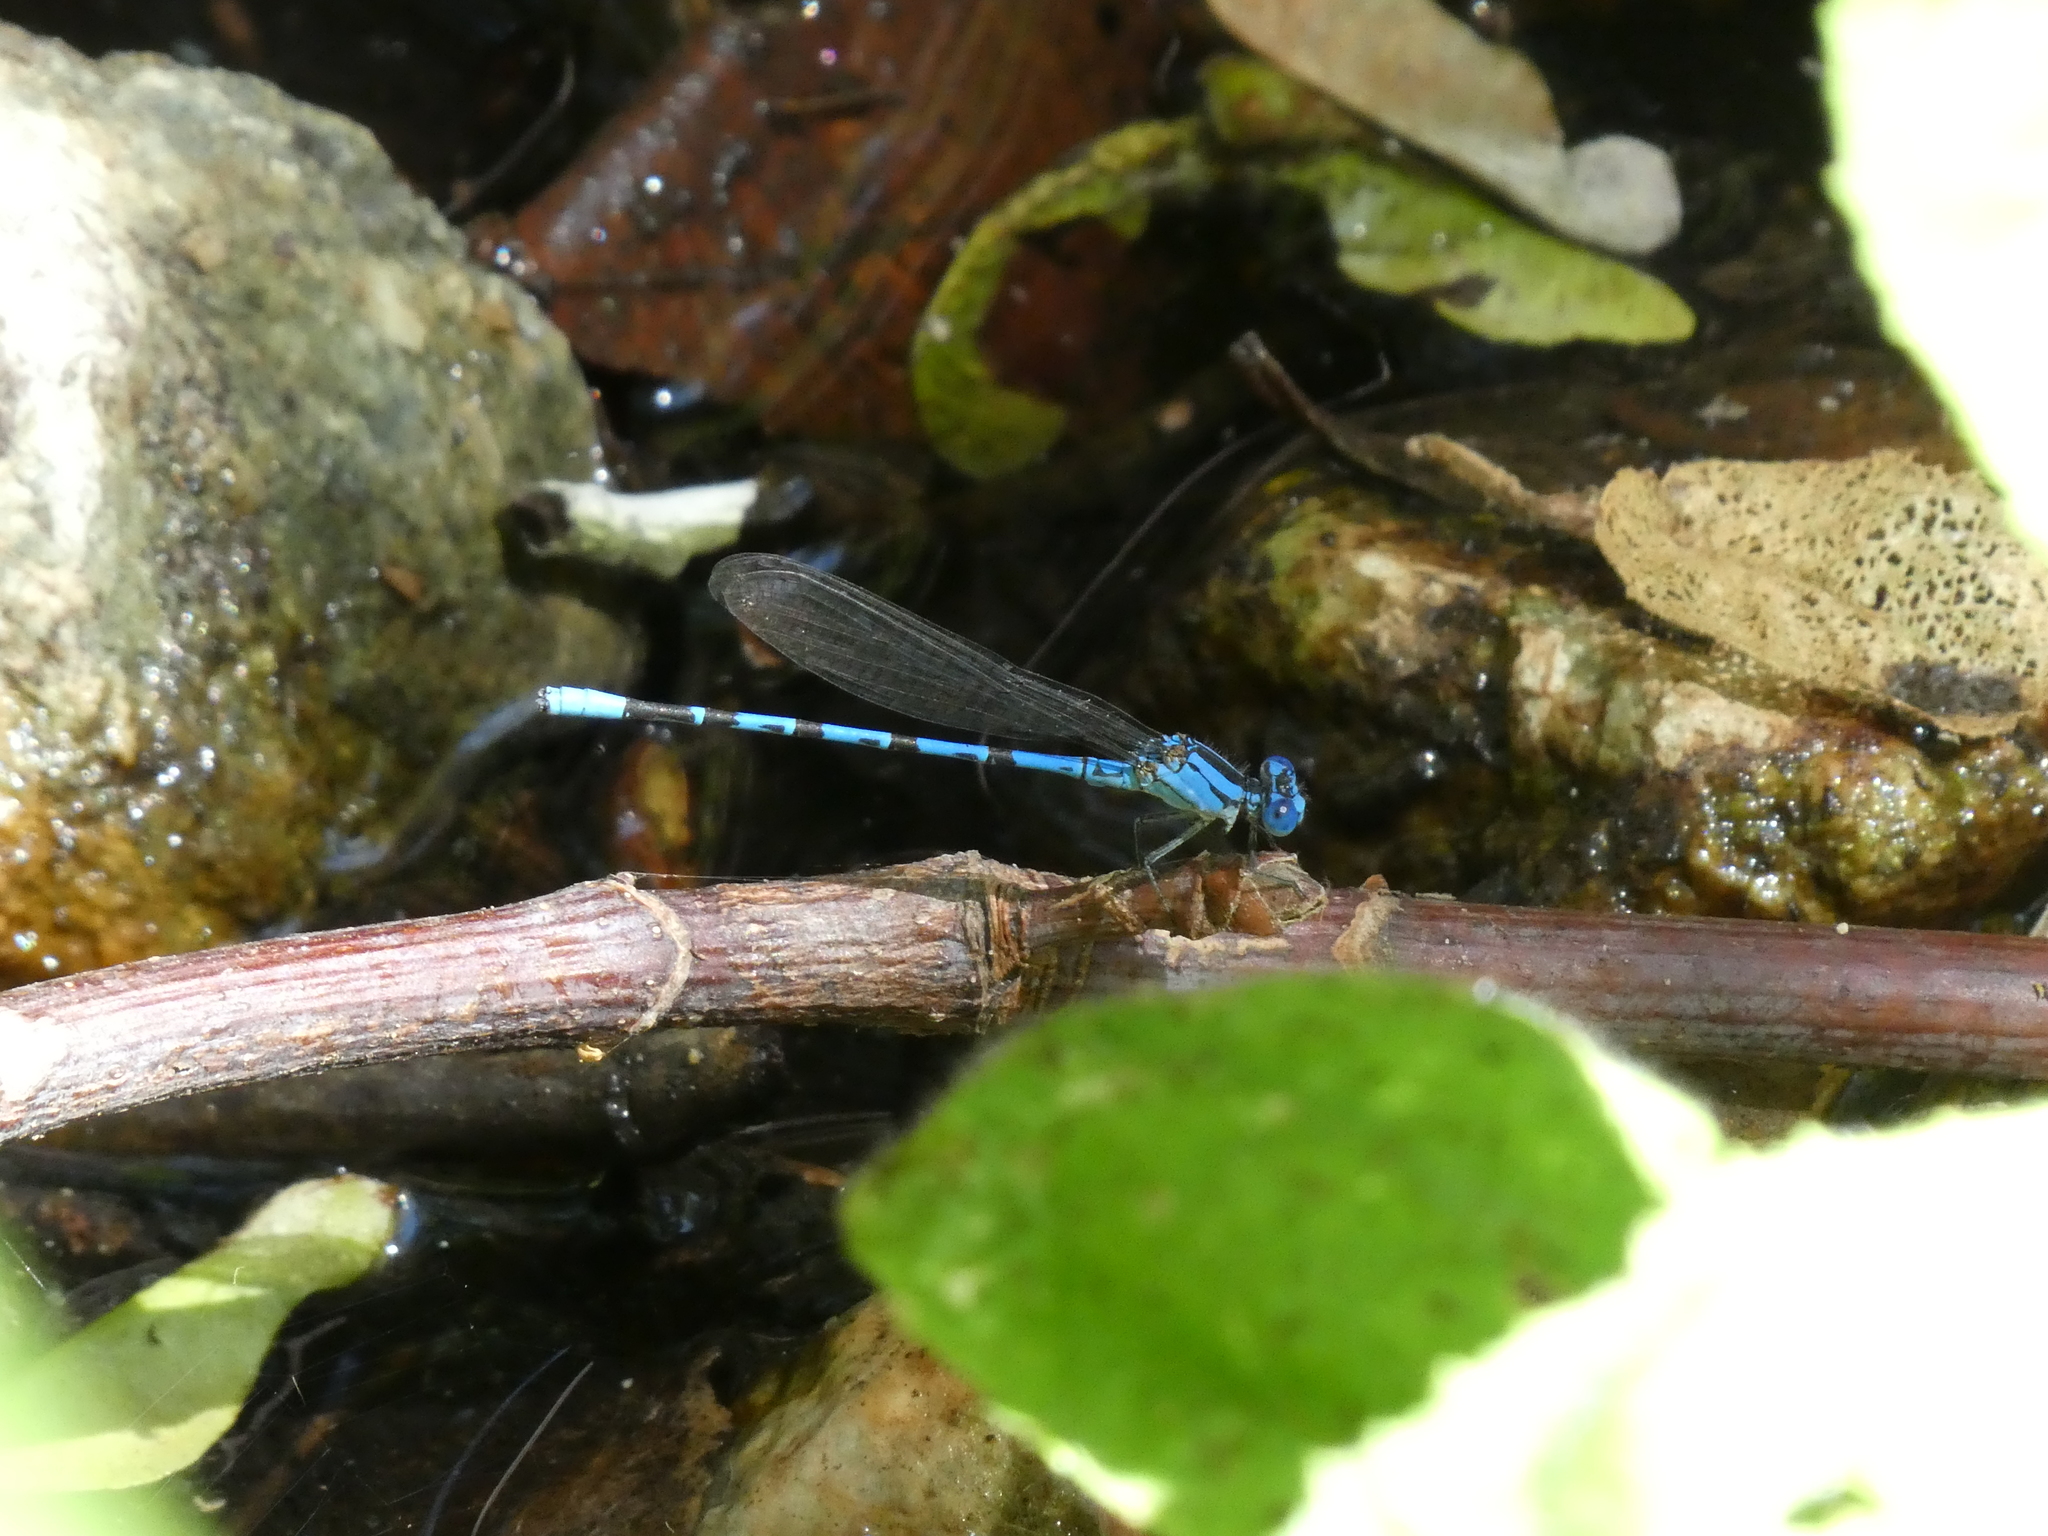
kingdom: Animalia
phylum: Arthropoda
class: Insecta
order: Odonata
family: Coenagrionidae
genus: Argia
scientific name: Argia vivida
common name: Vivid dancer
